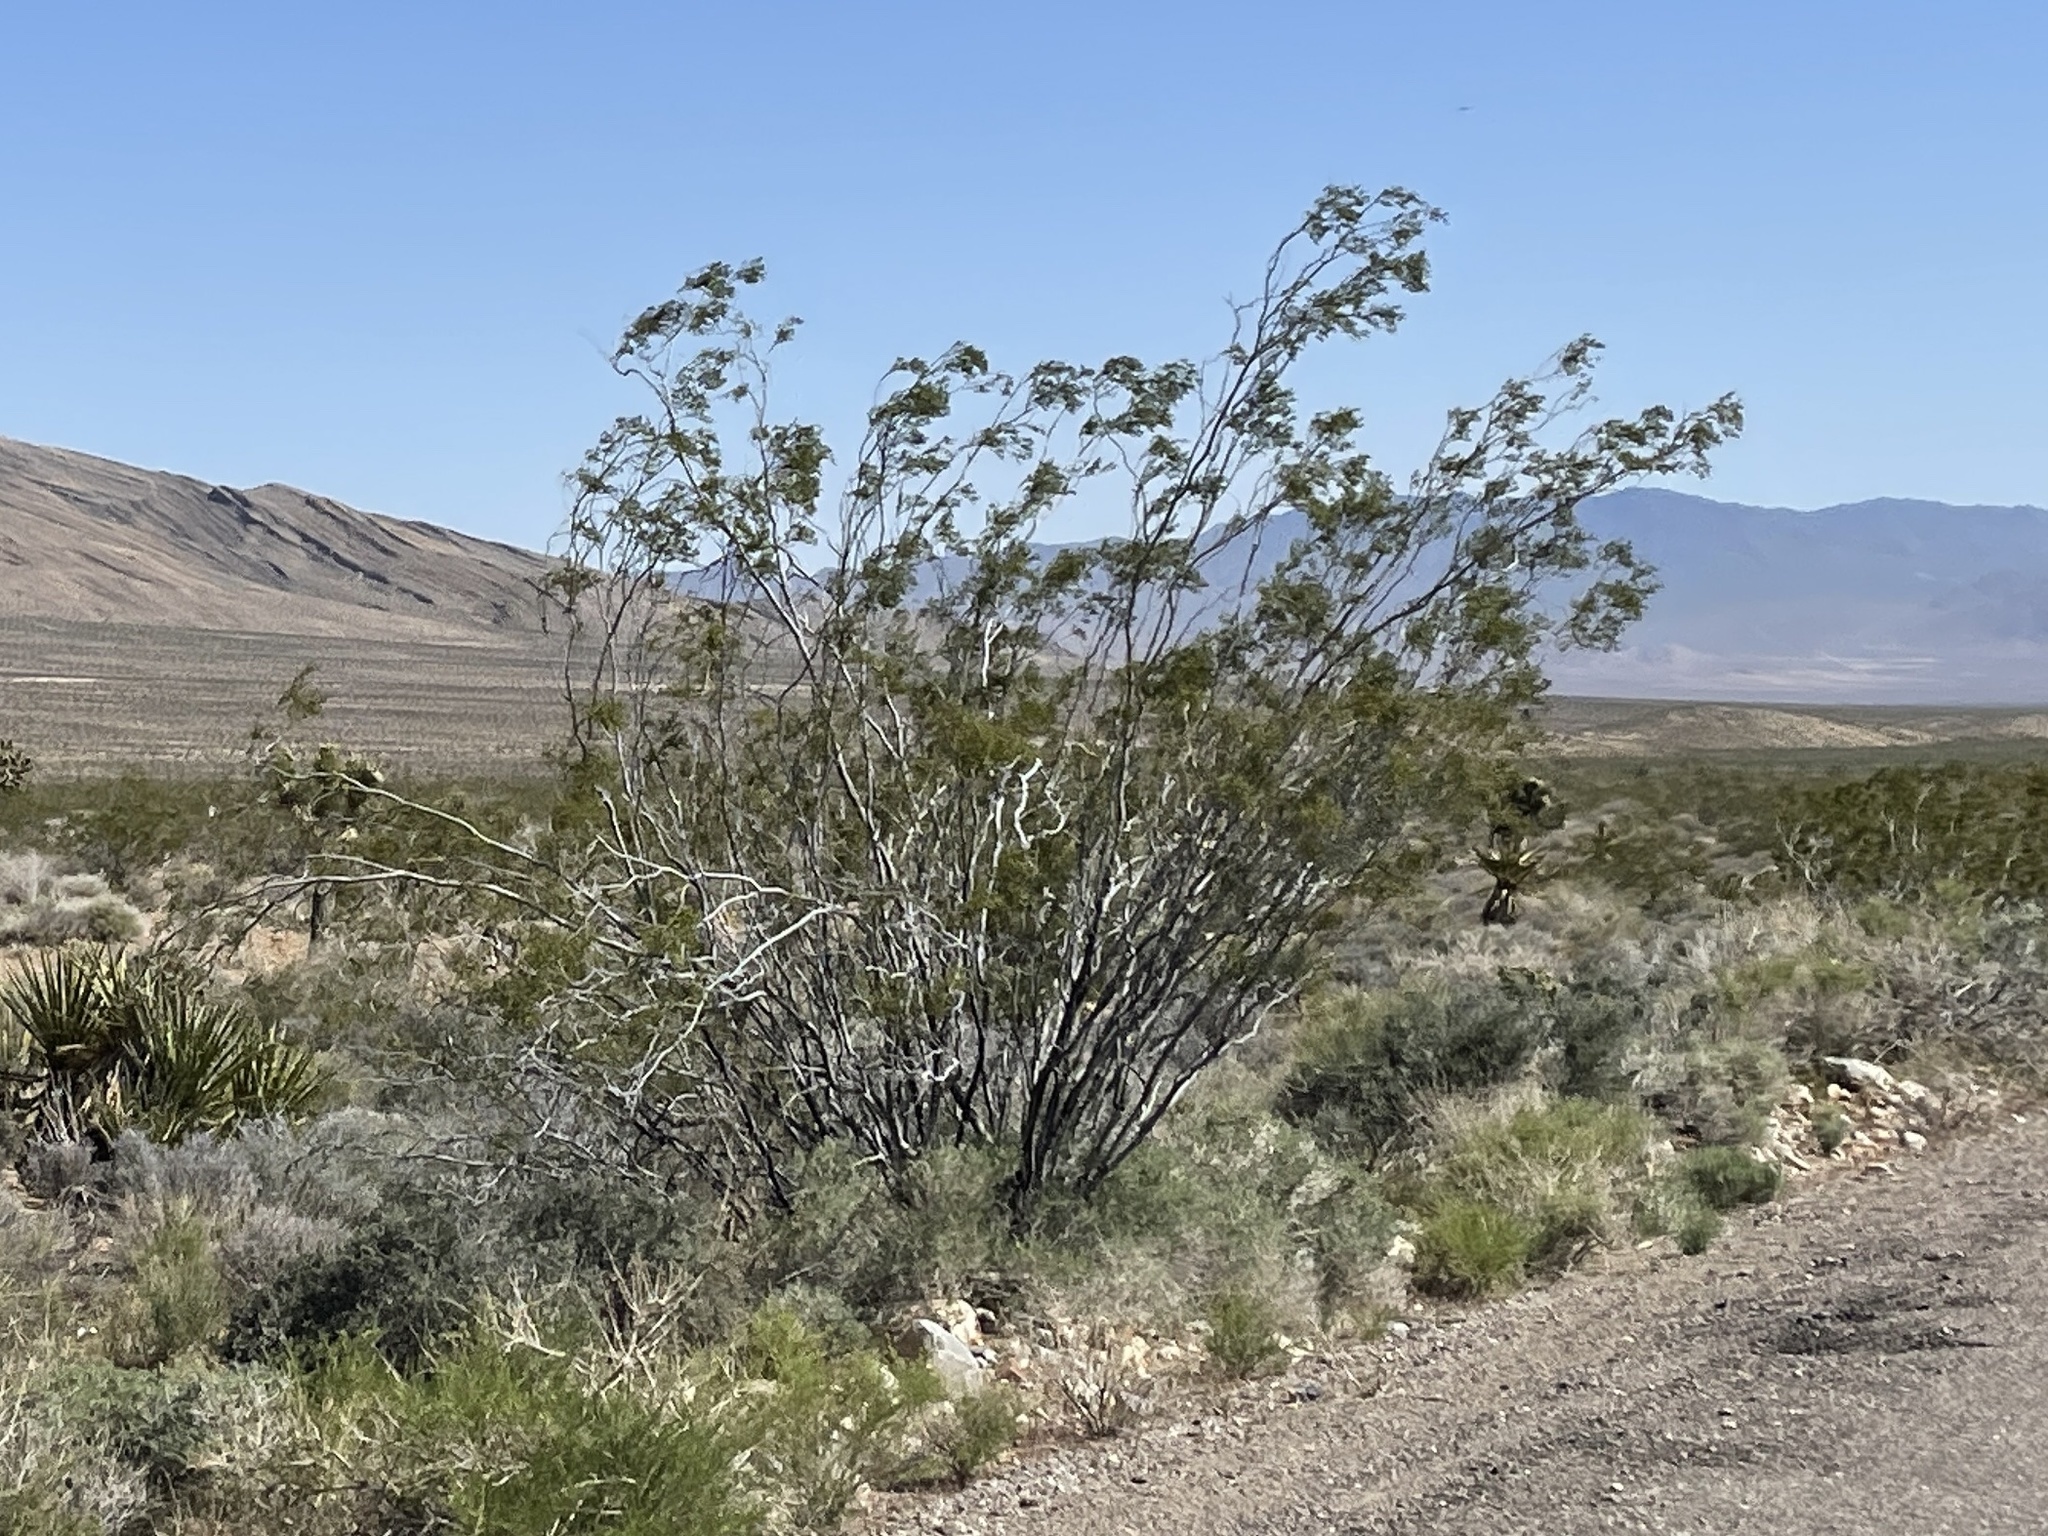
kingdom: Plantae
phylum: Tracheophyta
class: Magnoliopsida
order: Zygophyllales
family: Zygophyllaceae
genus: Larrea
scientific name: Larrea tridentata
